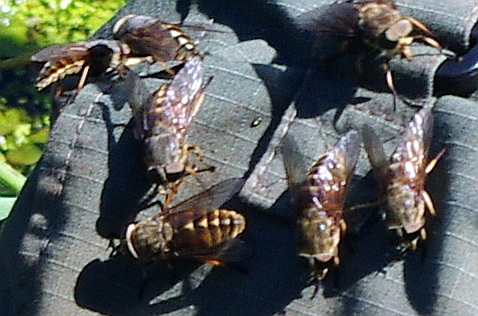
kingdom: Animalia
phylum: Arthropoda
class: Insecta
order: Diptera
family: Tabanidae
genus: Tabanus
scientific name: Tabanus bovinus
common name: Pale giant horsefly
